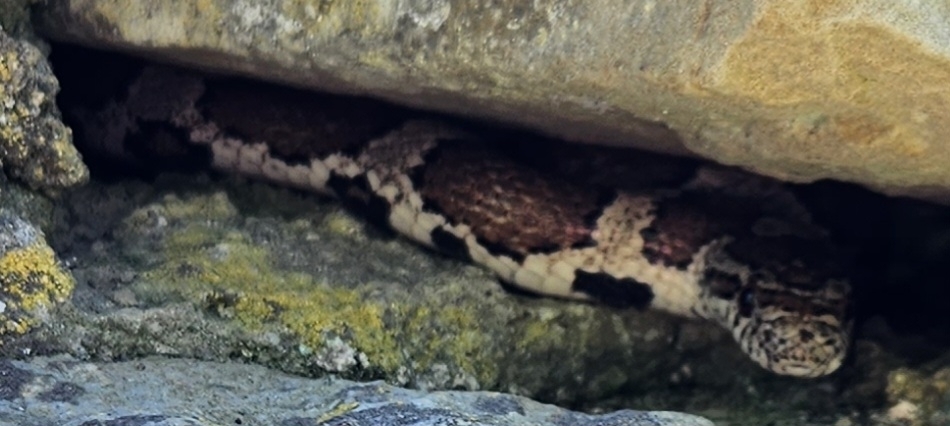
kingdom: Animalia
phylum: Chordata
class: Squamata
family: Colubridae
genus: Lampropeltis
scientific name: Lampropeltis triangulum
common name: Eastern milksnake
